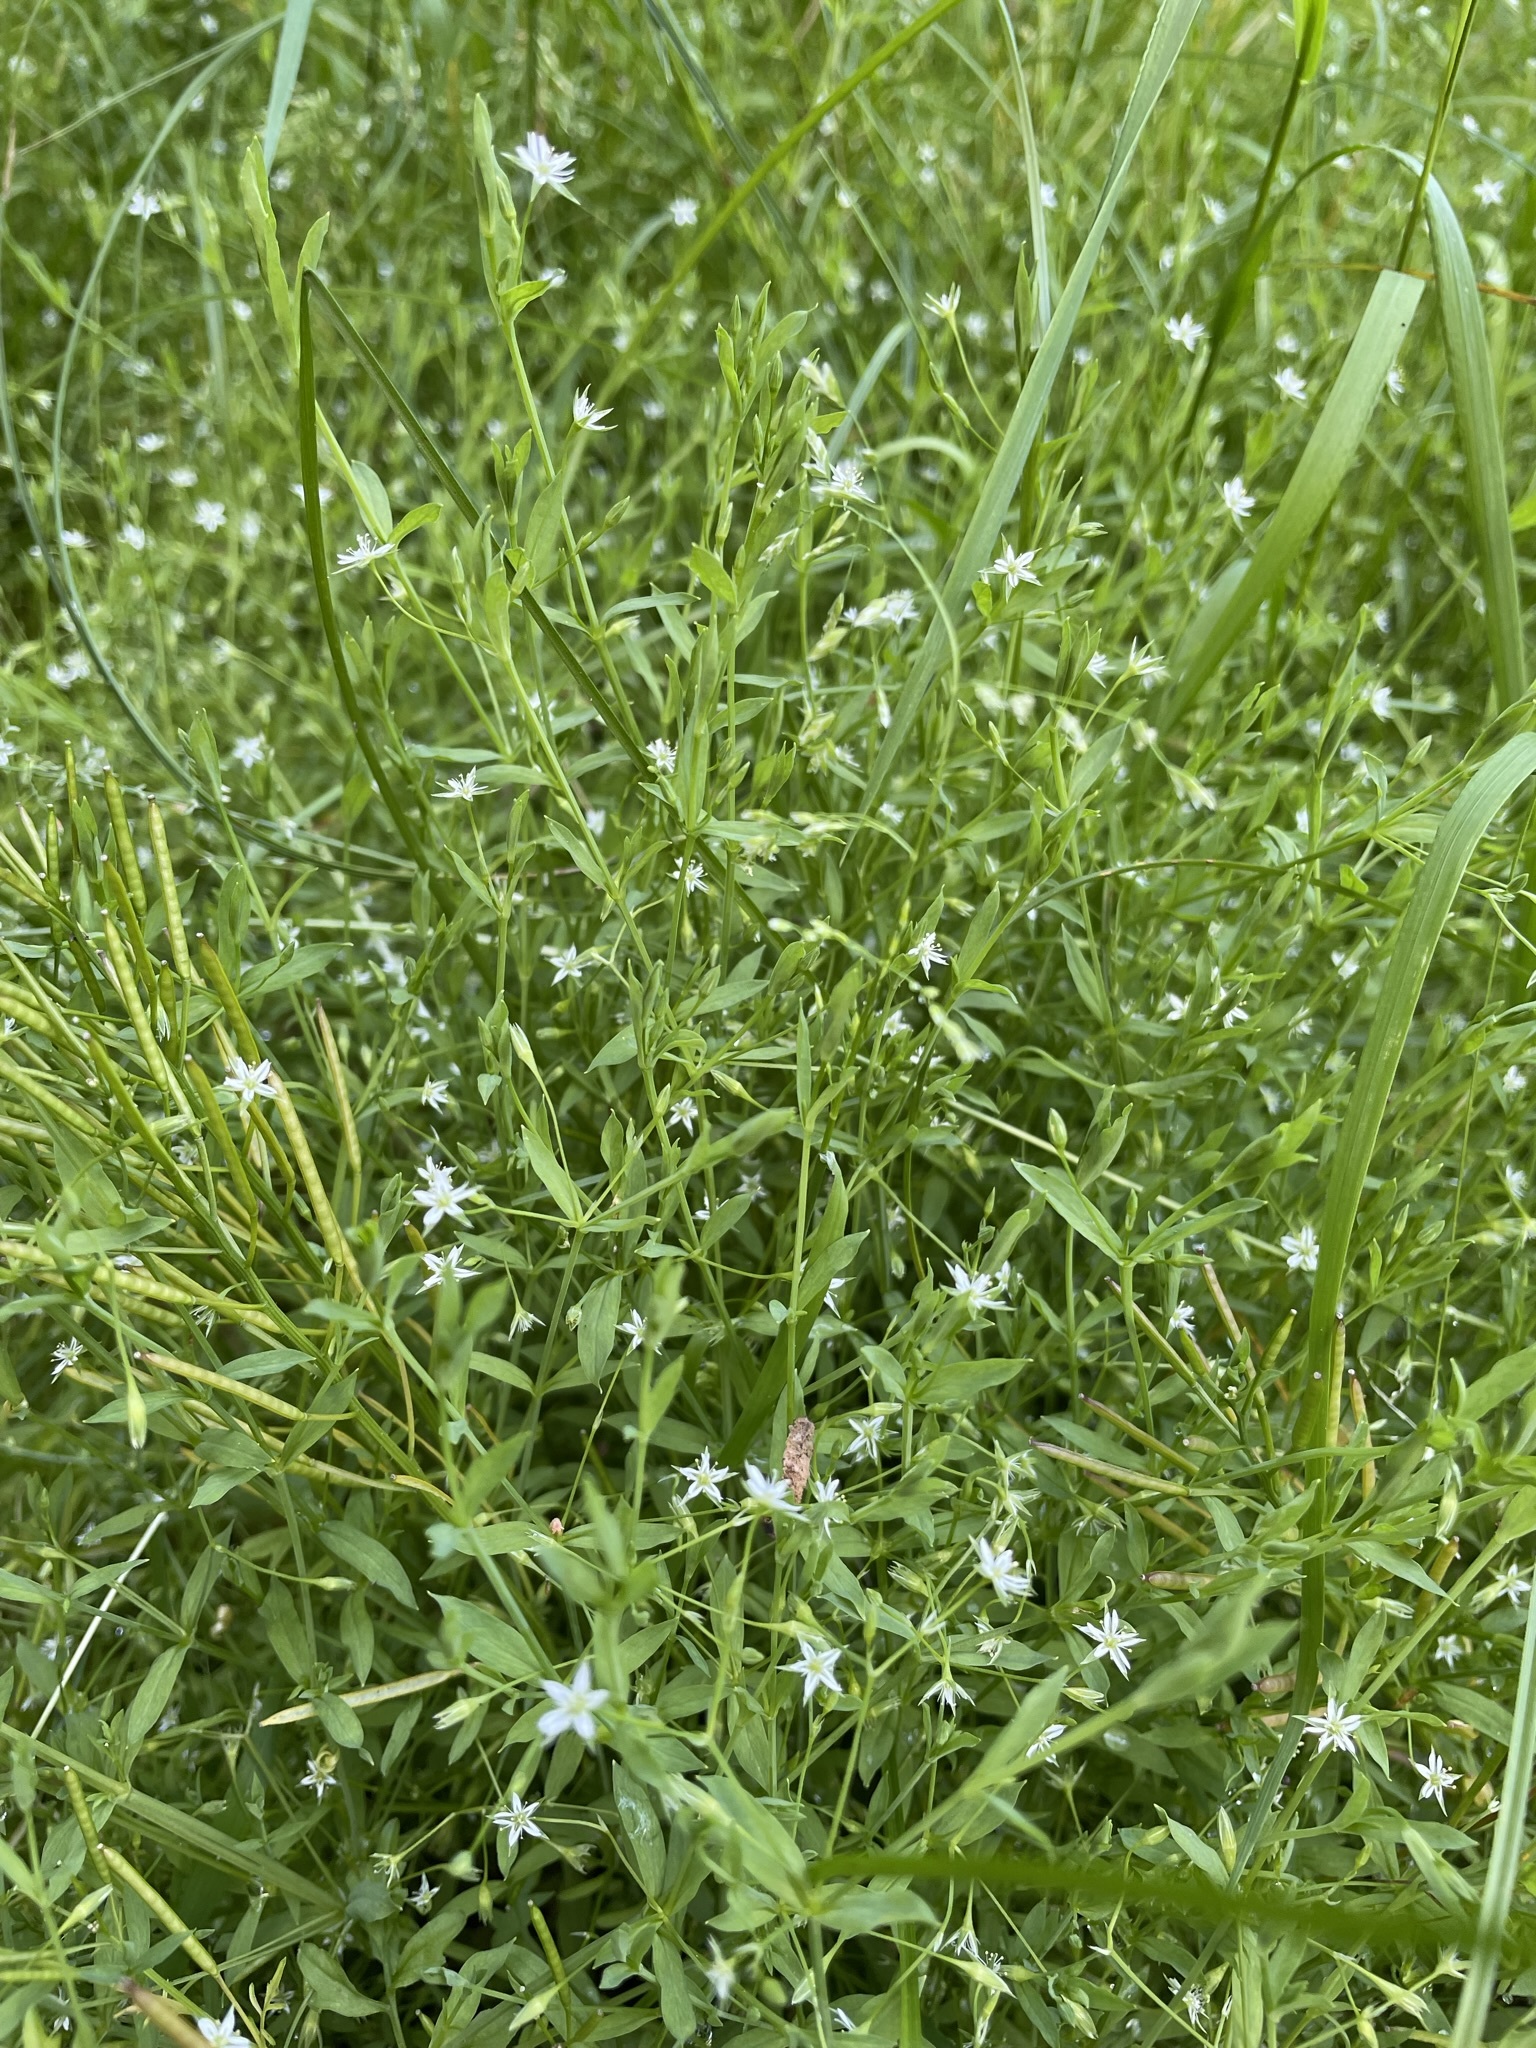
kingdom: Plantae
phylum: Tracheophyta
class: Magnoliopsida
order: Caryophyllales
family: Caryophyllaceae
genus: Stellaria
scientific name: Stellaria alsine
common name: Bog stitchwort
